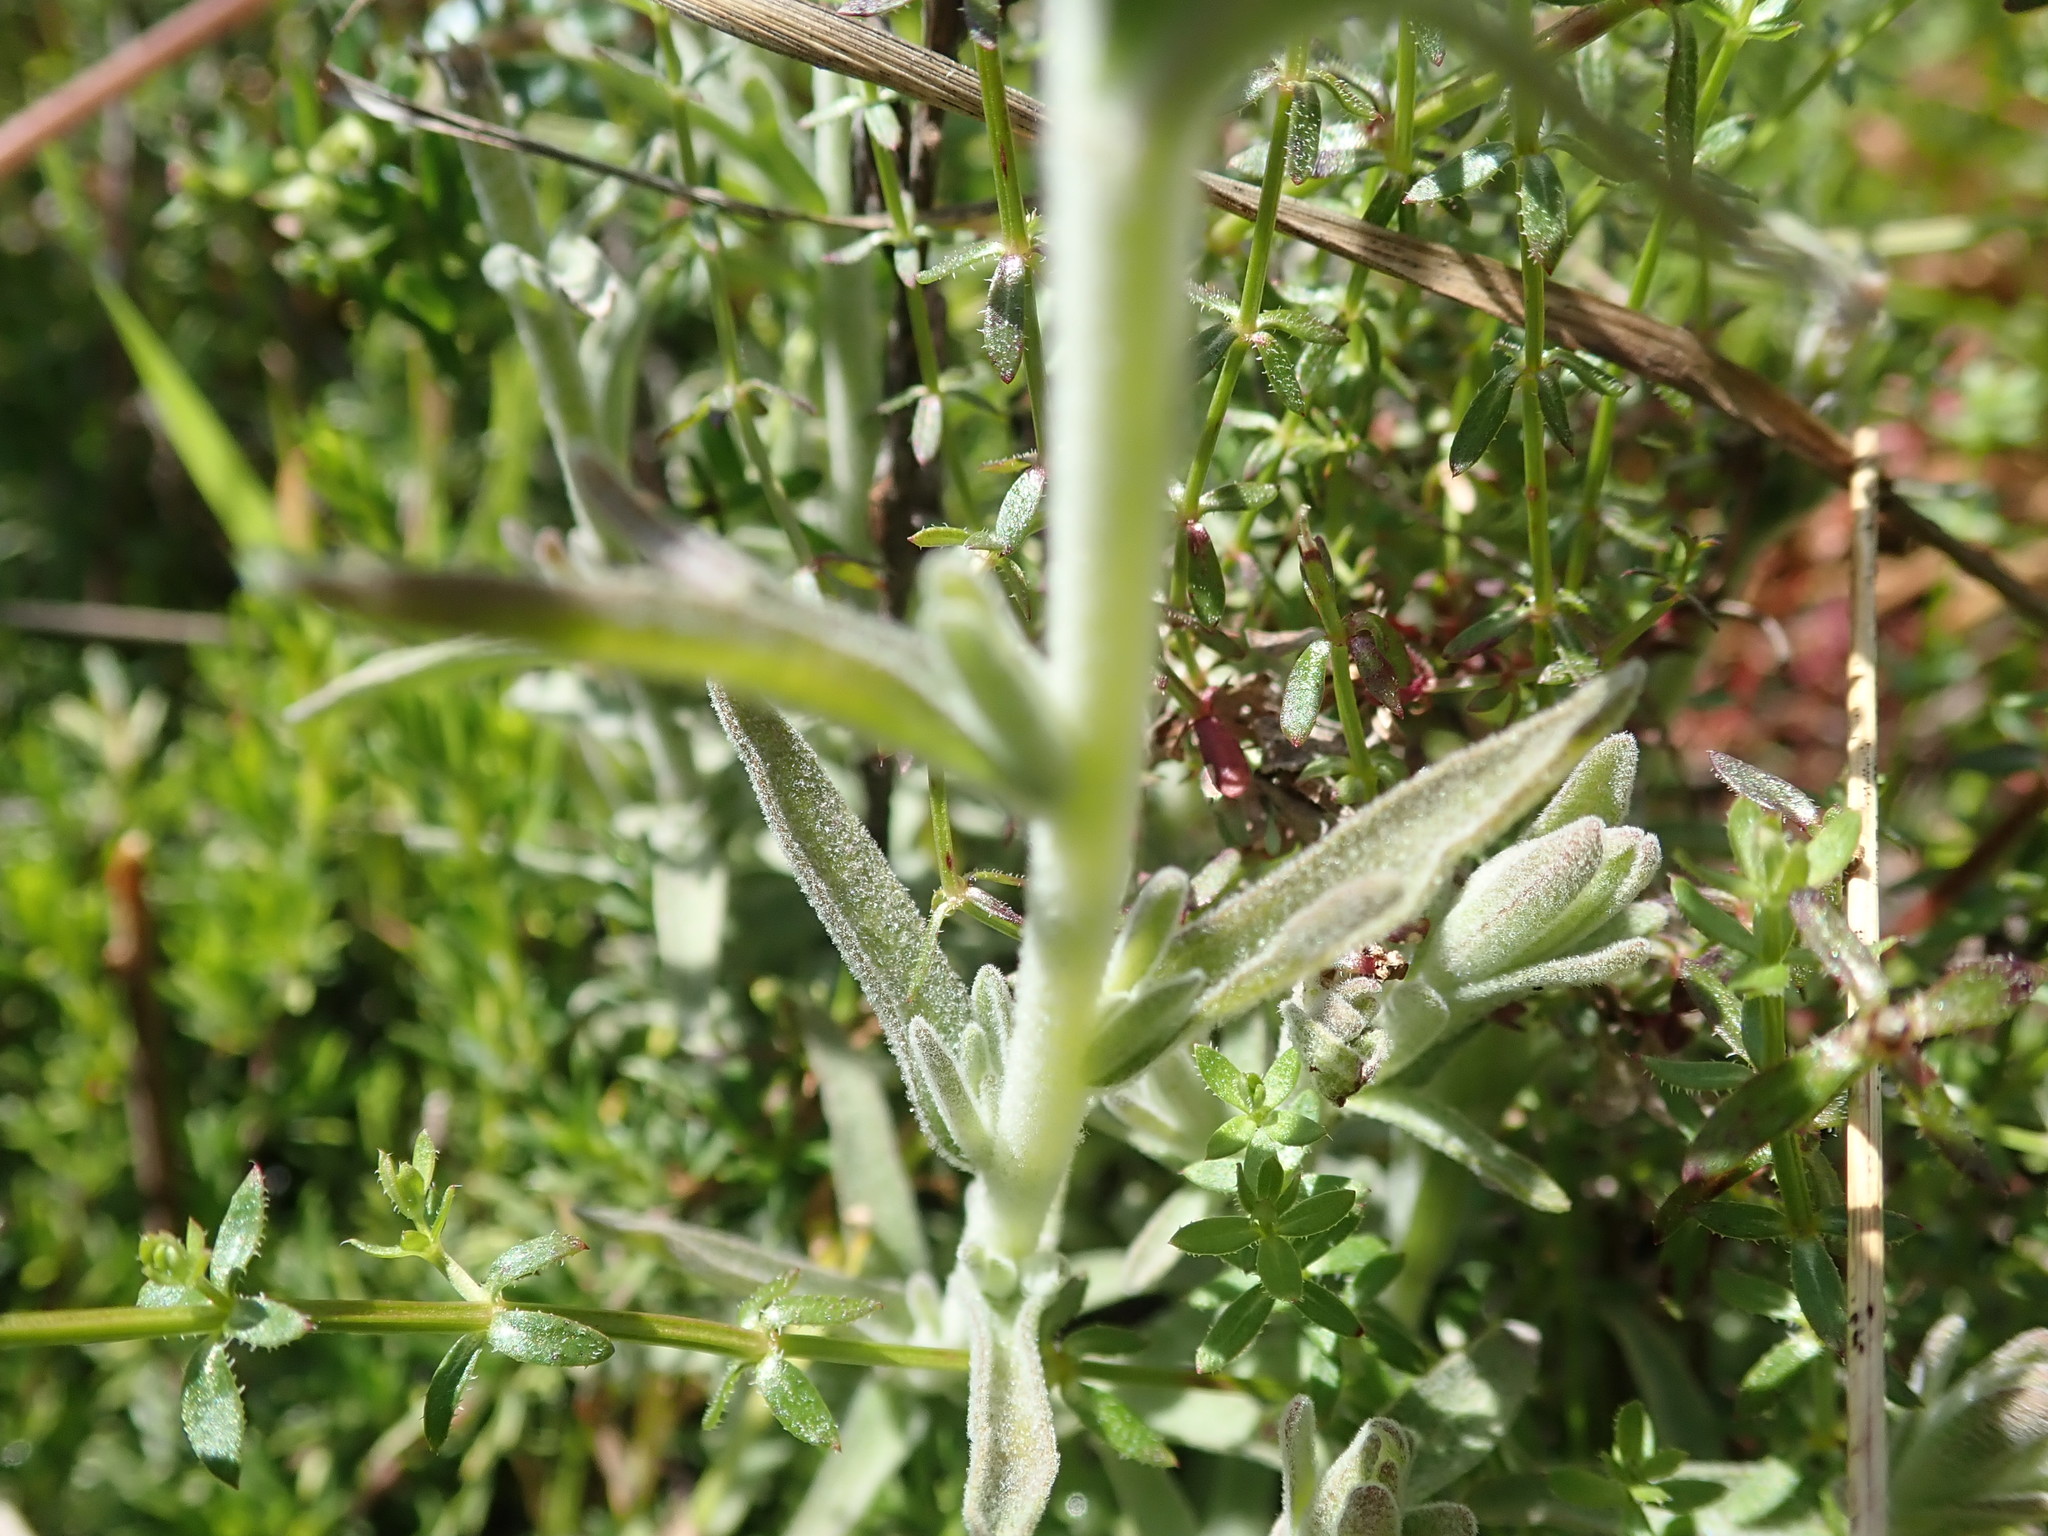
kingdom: Plantae
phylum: Tracheophyta
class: Magnoliopsida
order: Lamiales
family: Orobanchaceae
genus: Castilleja
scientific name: Castilleja foliolosa
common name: Woolly indian paintbrush
